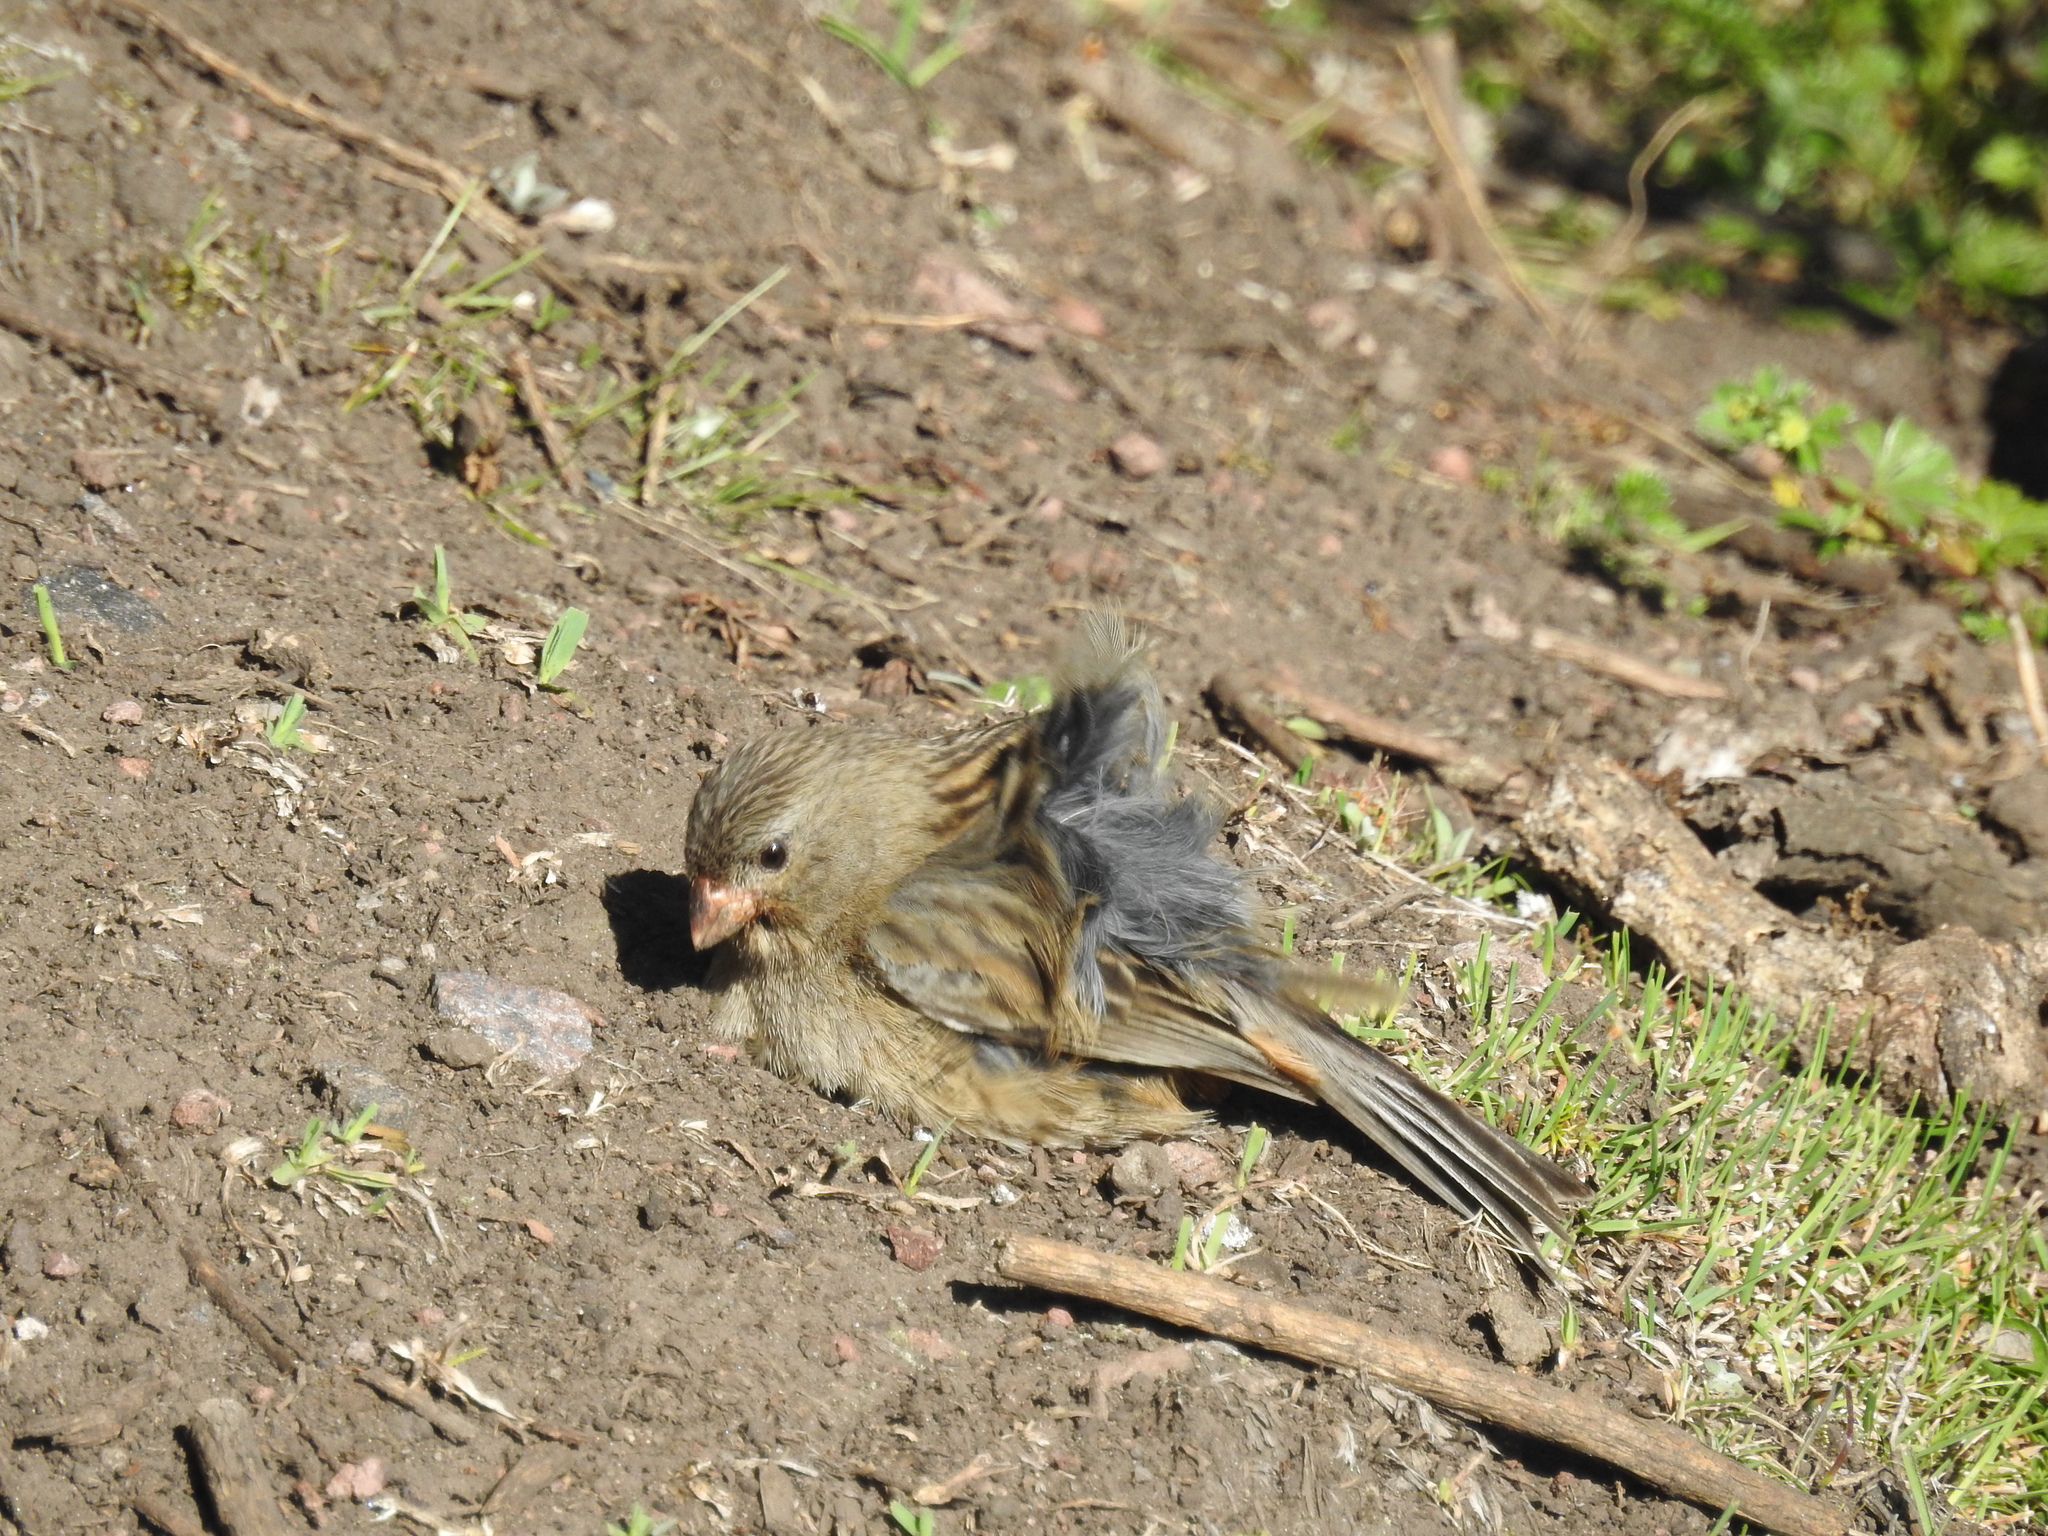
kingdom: Animalia
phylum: Chordata
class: Aves
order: Passeriformes
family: Thraupidae
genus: Catamenia
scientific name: Catamenia inornata
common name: Plain-colored seedeater
